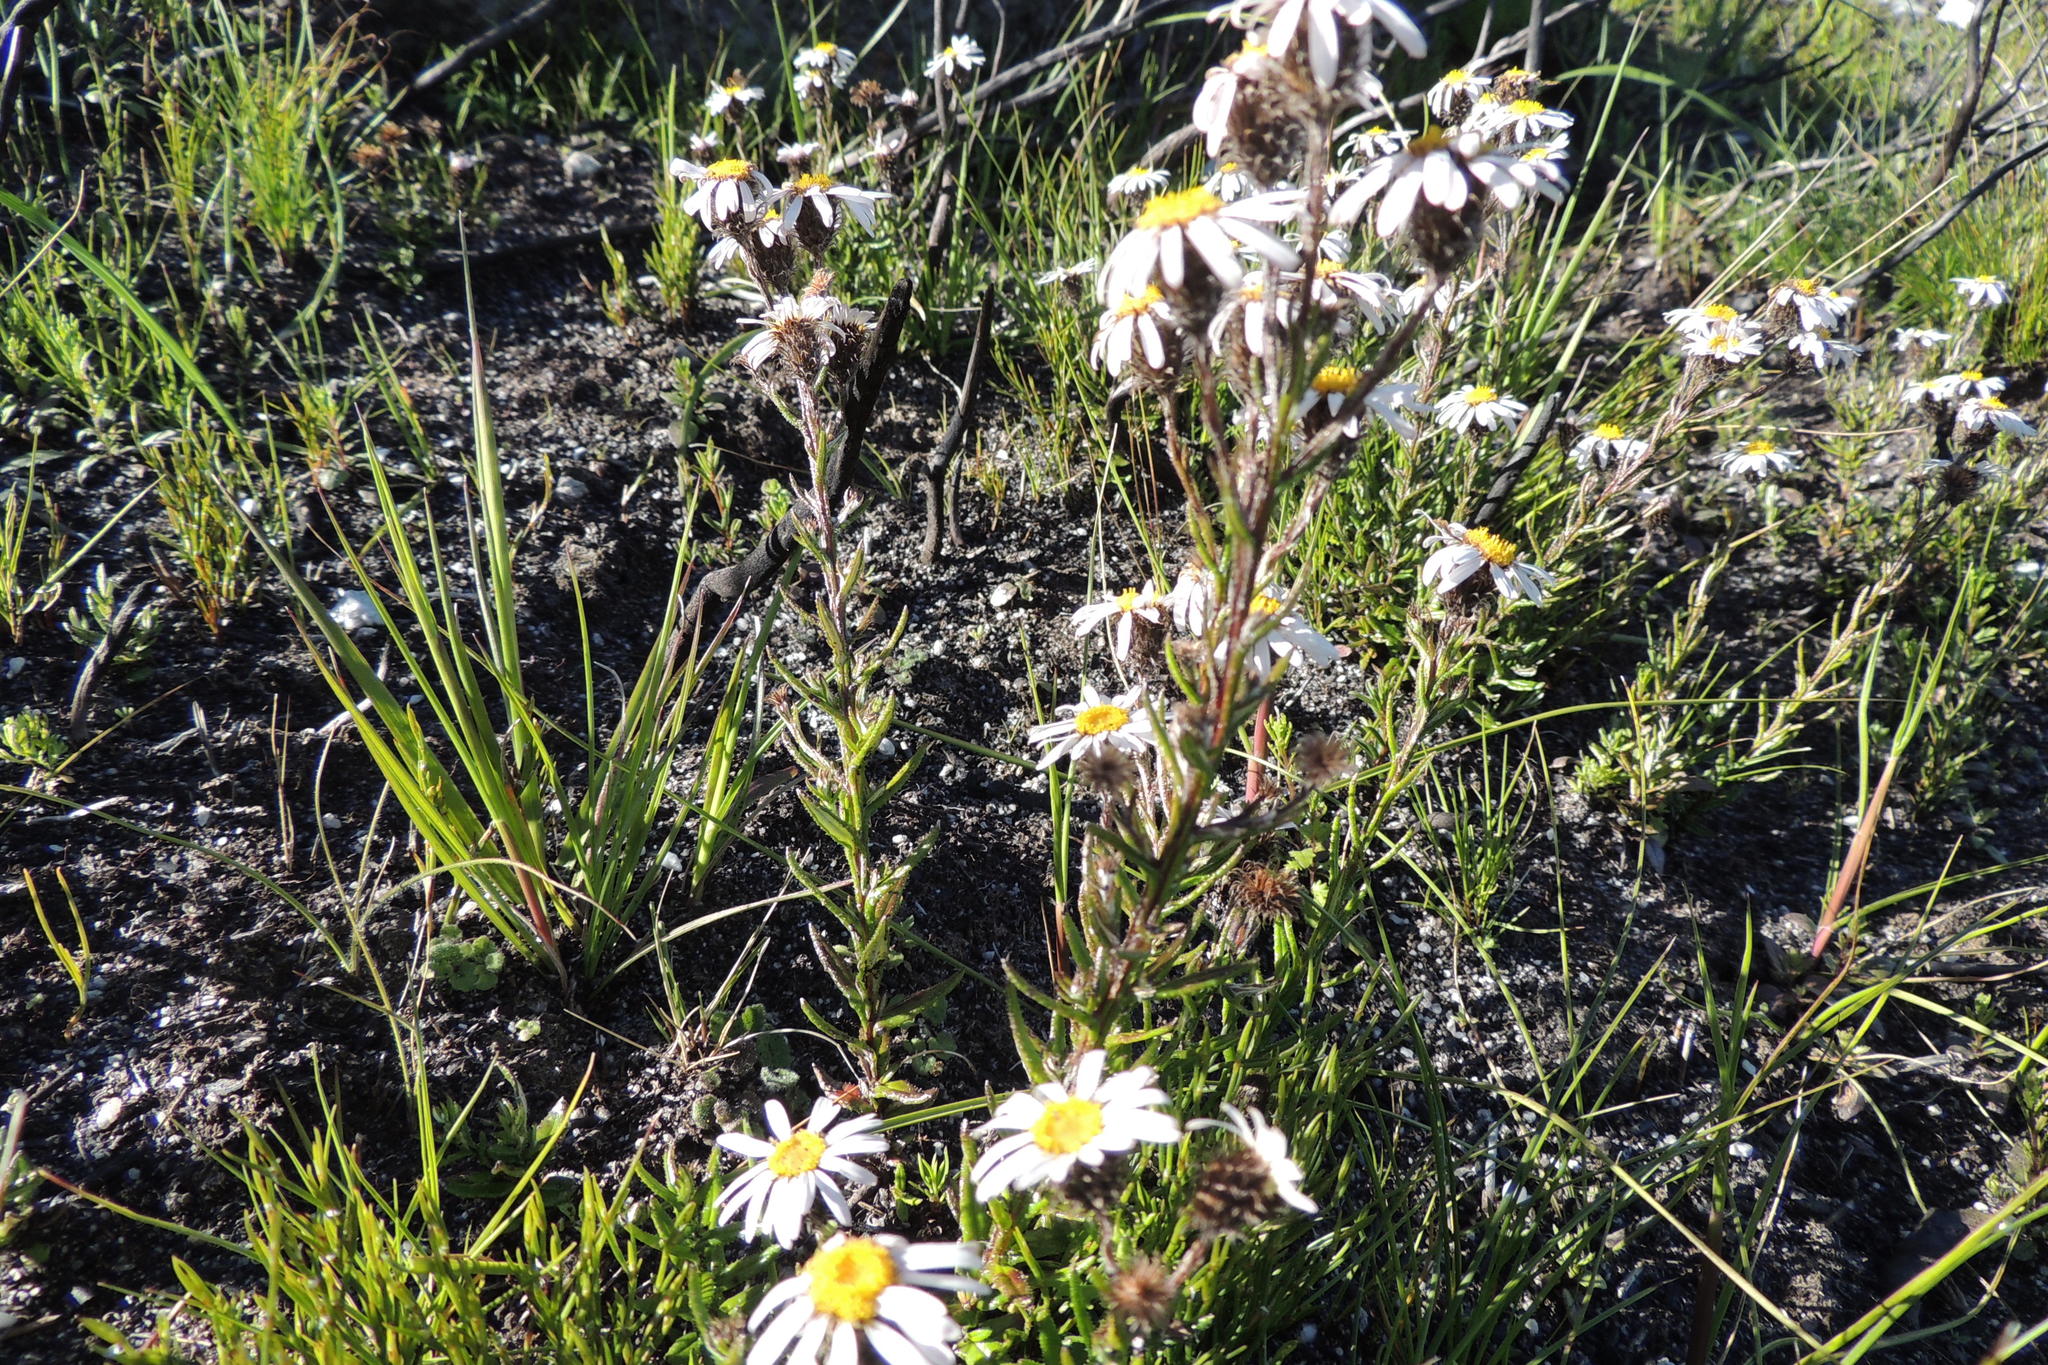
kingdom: Plantae
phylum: Tracheophyta
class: Magnoliopsida
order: Asterales
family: Asteraceae
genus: Athrixia
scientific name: Athrixia heterophylla
